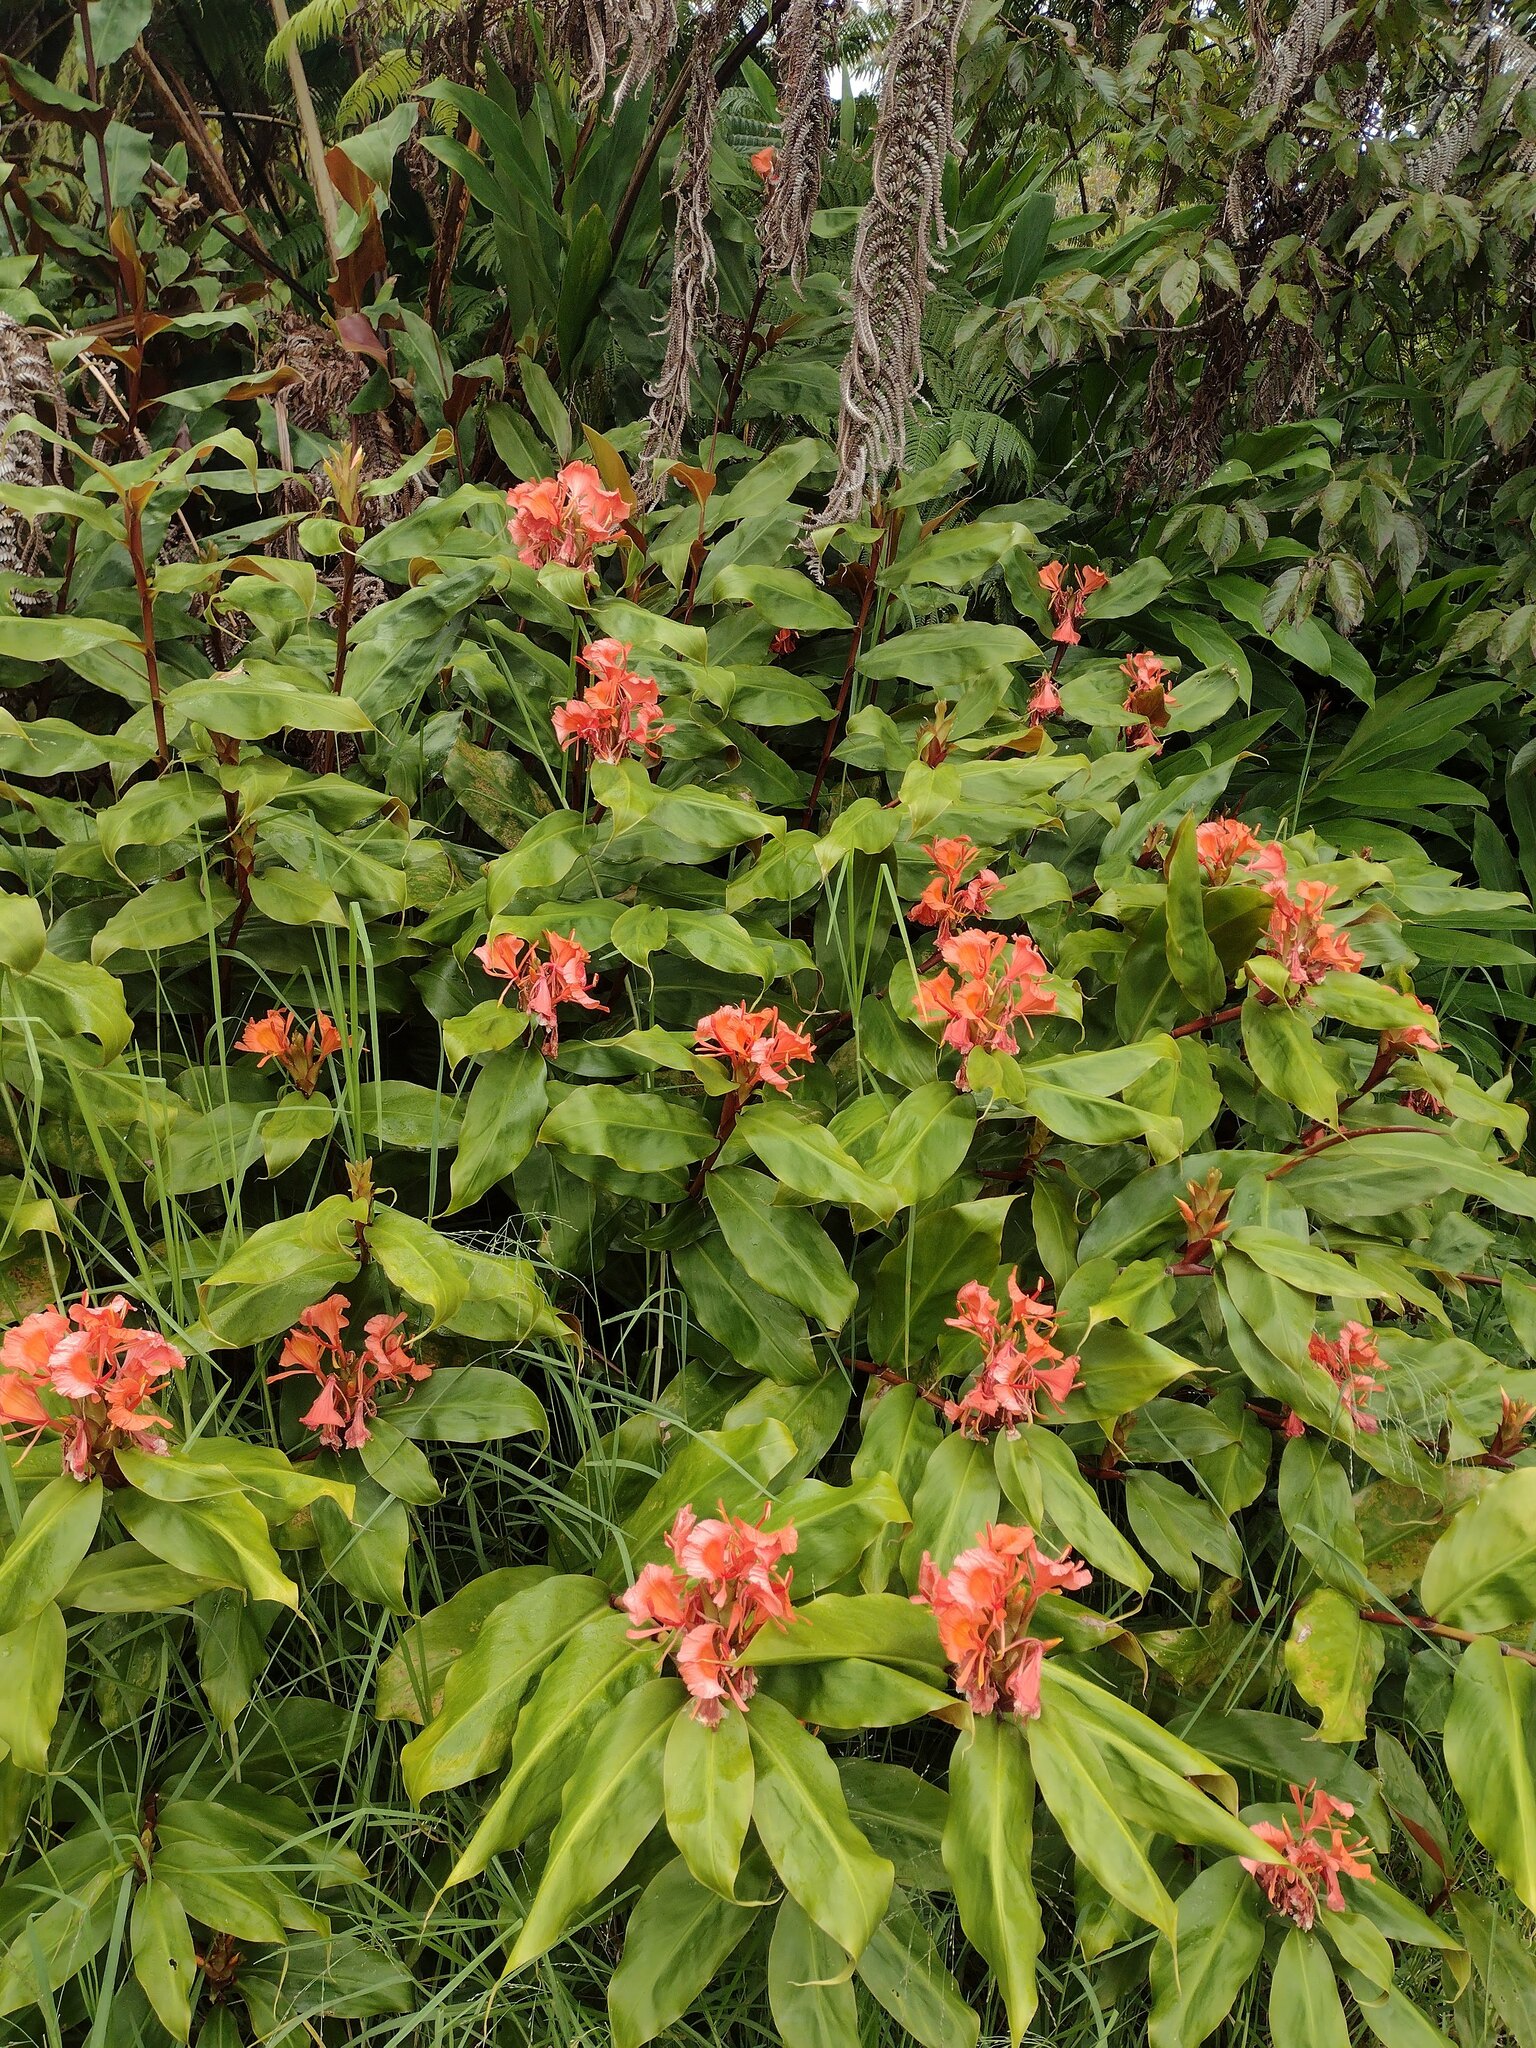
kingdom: Plantae
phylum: Tracheophyta
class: Liliopsida
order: Zingiberales
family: Zingiberaceae
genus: Hedychium
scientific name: Hedychium greenii
